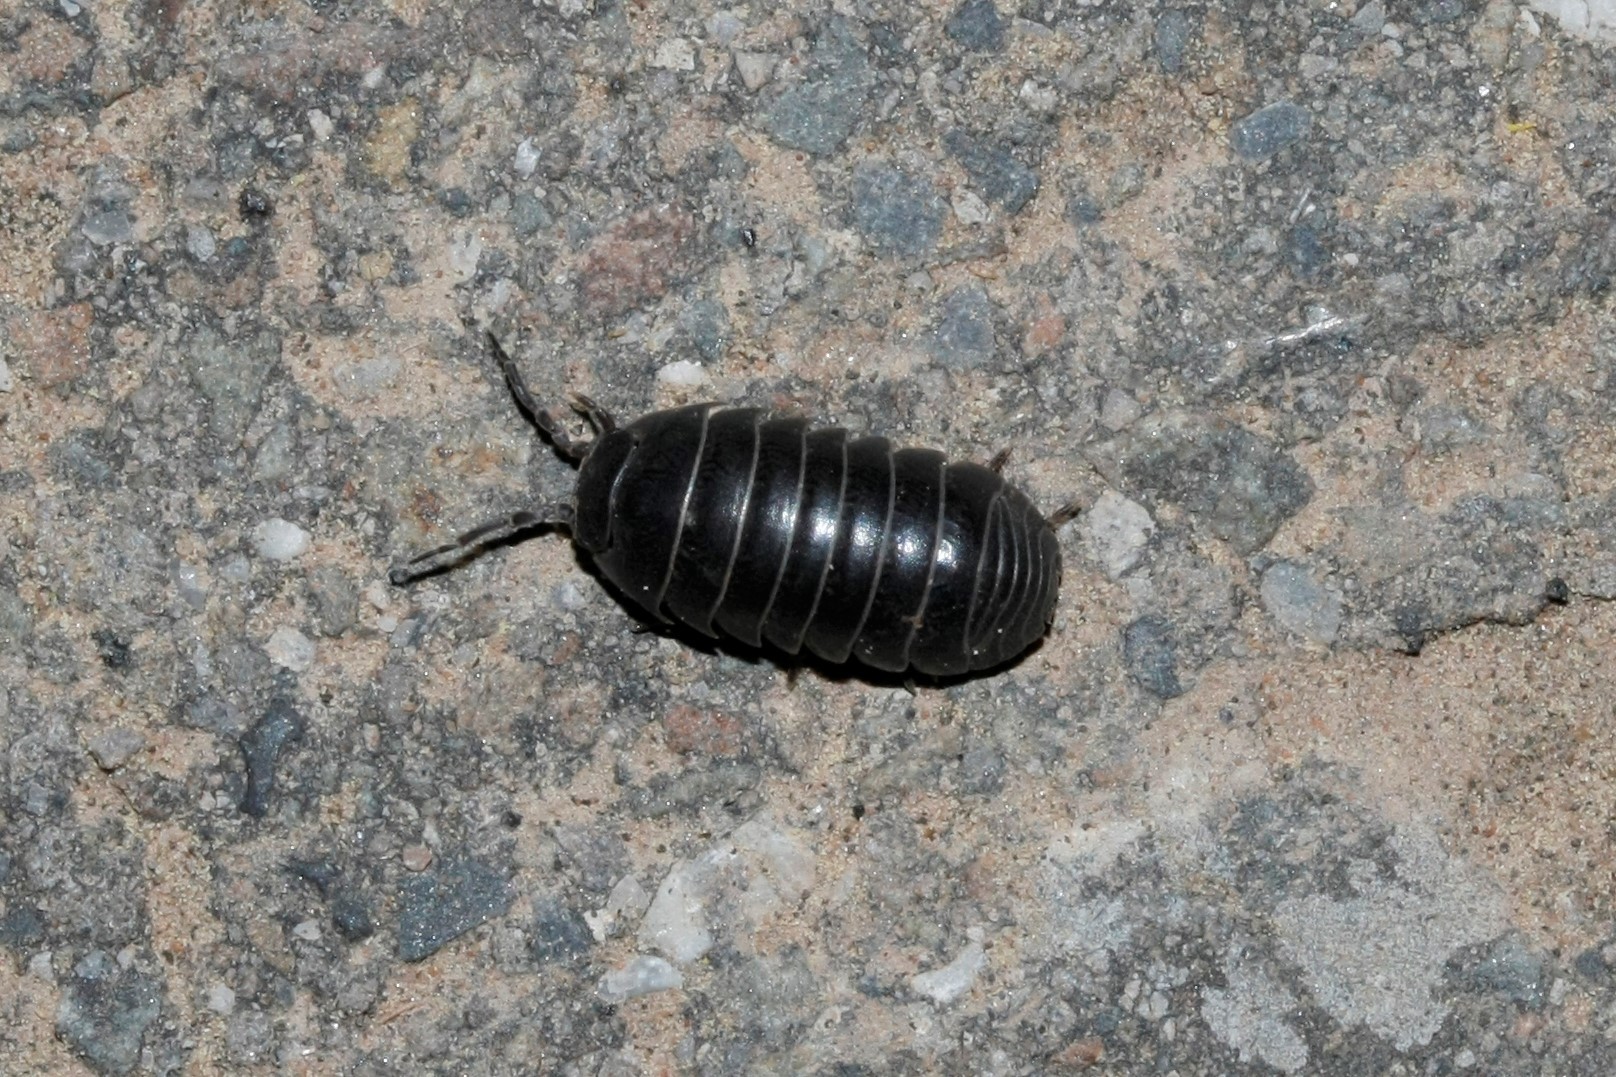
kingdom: Animalia
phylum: Arthropoda
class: Malacostraca
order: Isopoda
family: Armadillidiidae
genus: Armadillidium
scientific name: Armadillidium vulgare
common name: Common pill woodlouse
